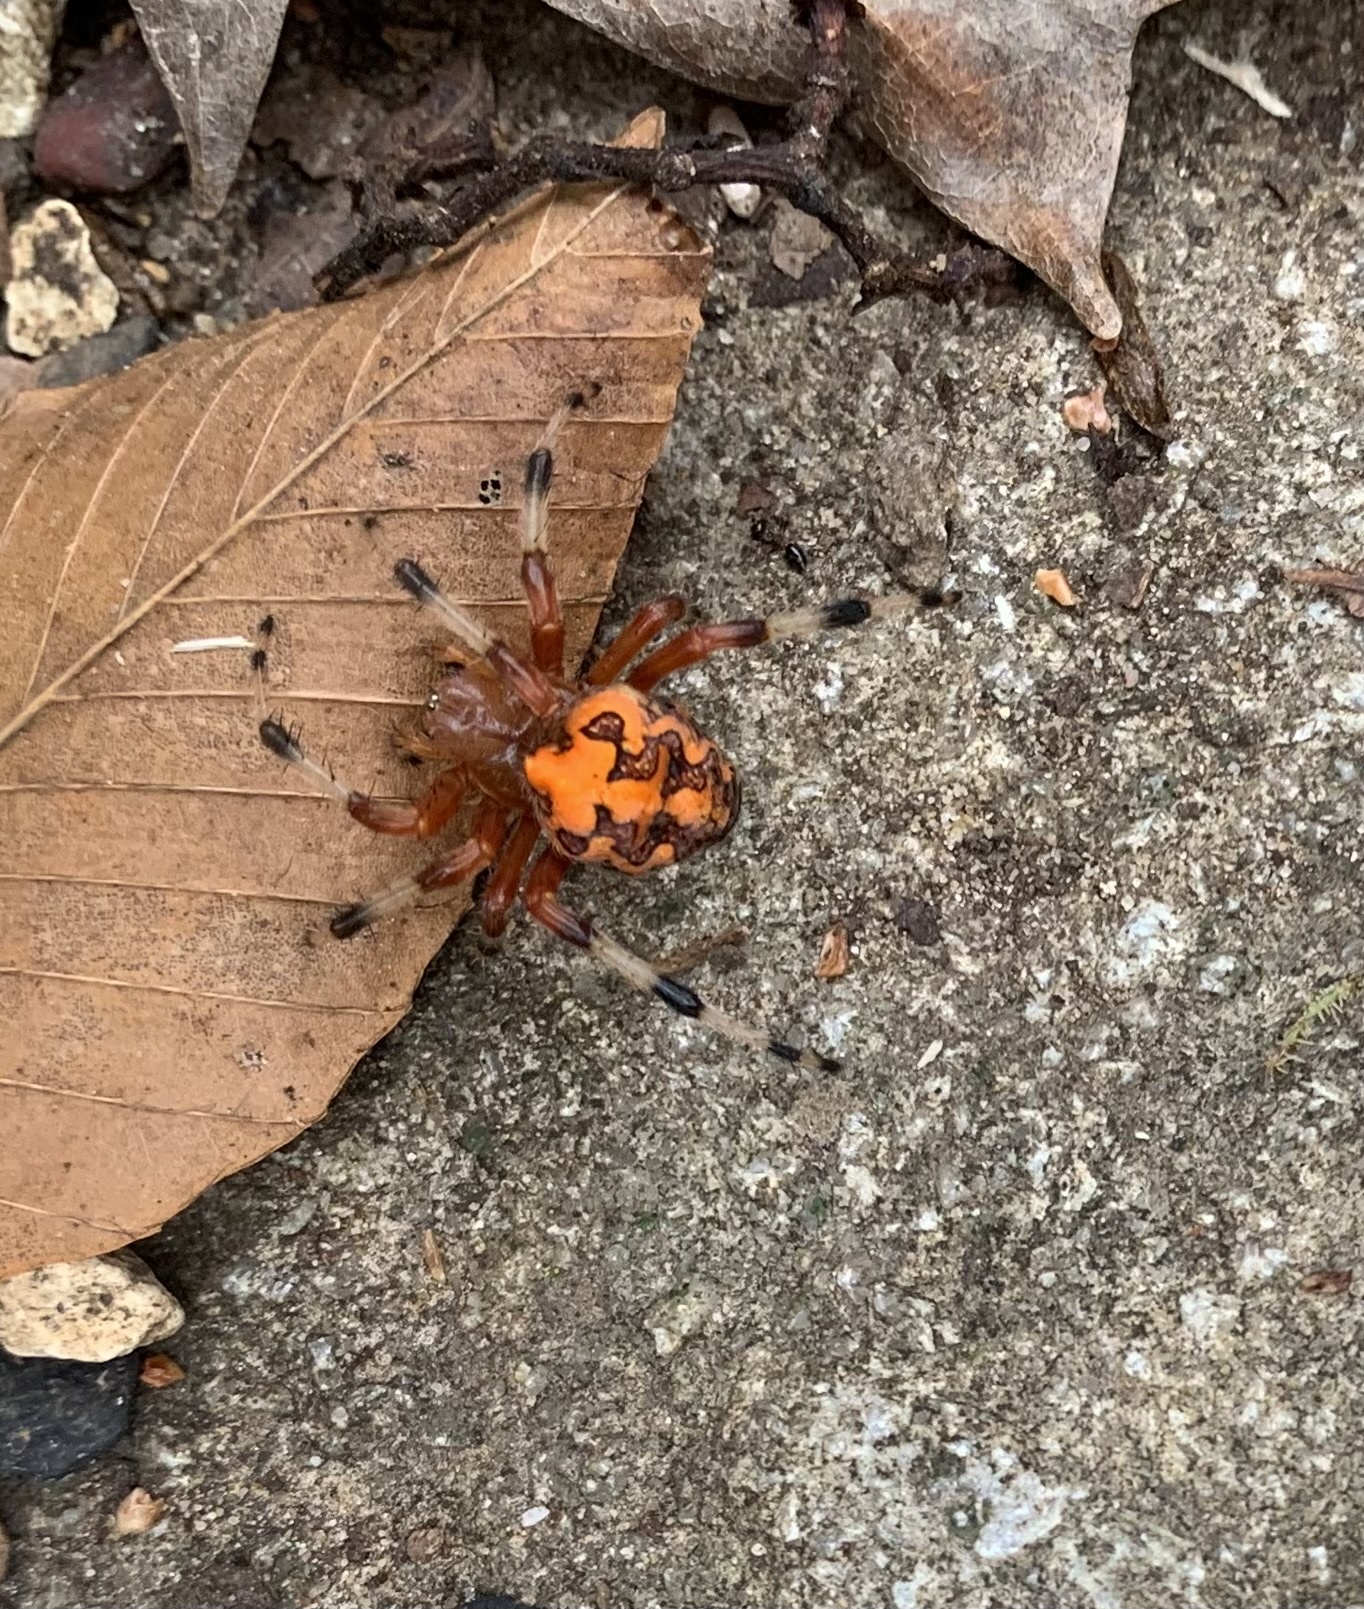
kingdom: Animalia
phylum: Arthropoda
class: Arachnida
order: Araneae
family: Araneidae
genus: Araneus
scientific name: Araneus marmoreus
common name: Marbled orbweaver
